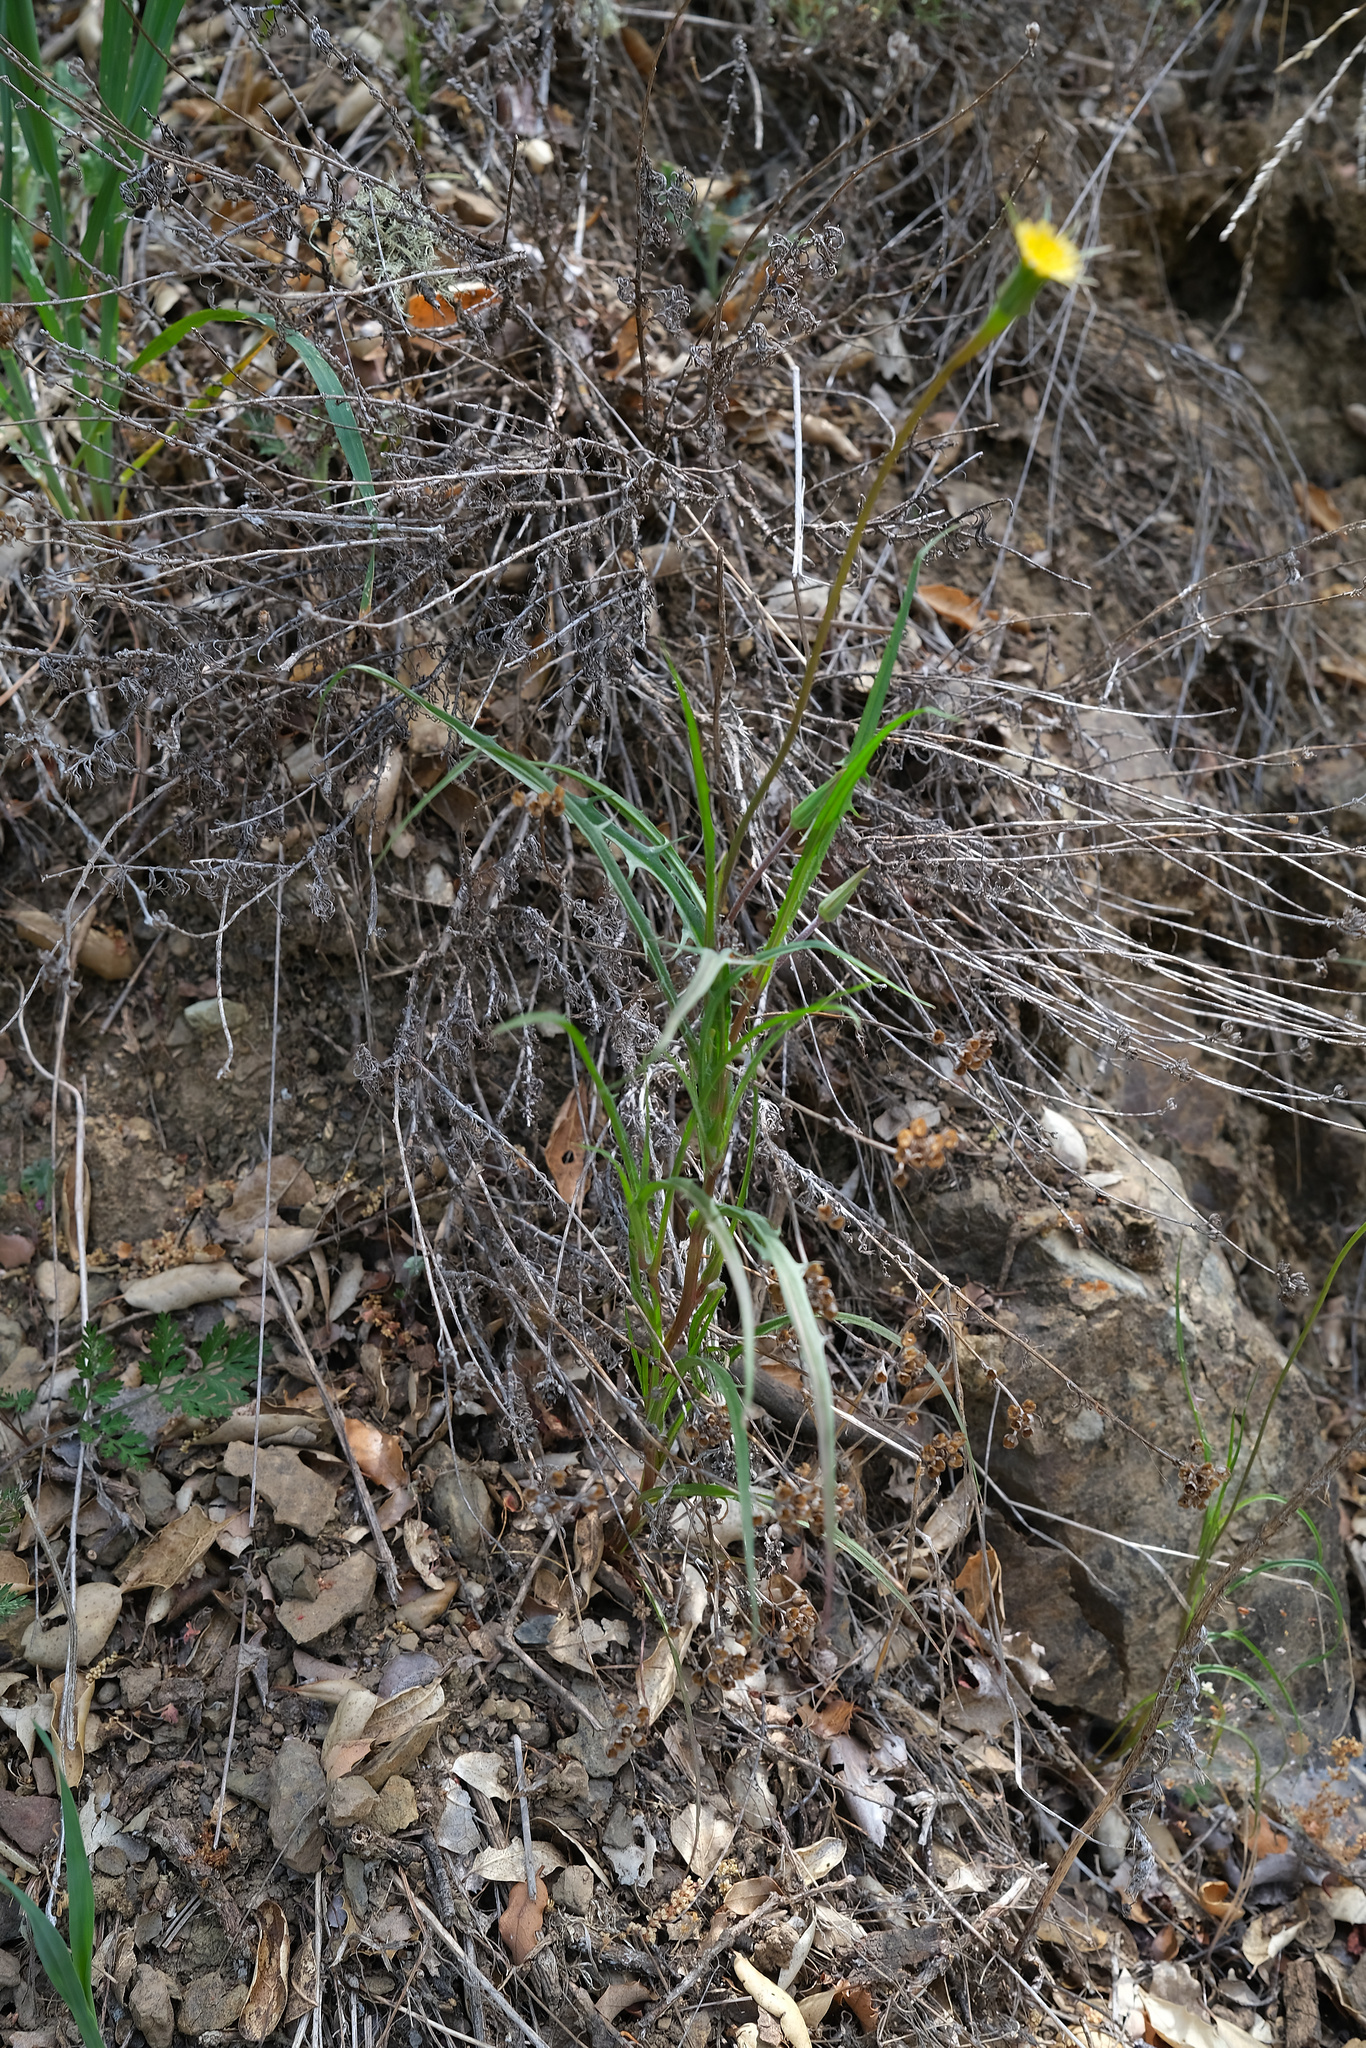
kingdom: Plantae
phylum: Tracheophyta
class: Magnoliopsida
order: Asterales
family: Asteraceae
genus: Microseris
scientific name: Microseris lindleyi
